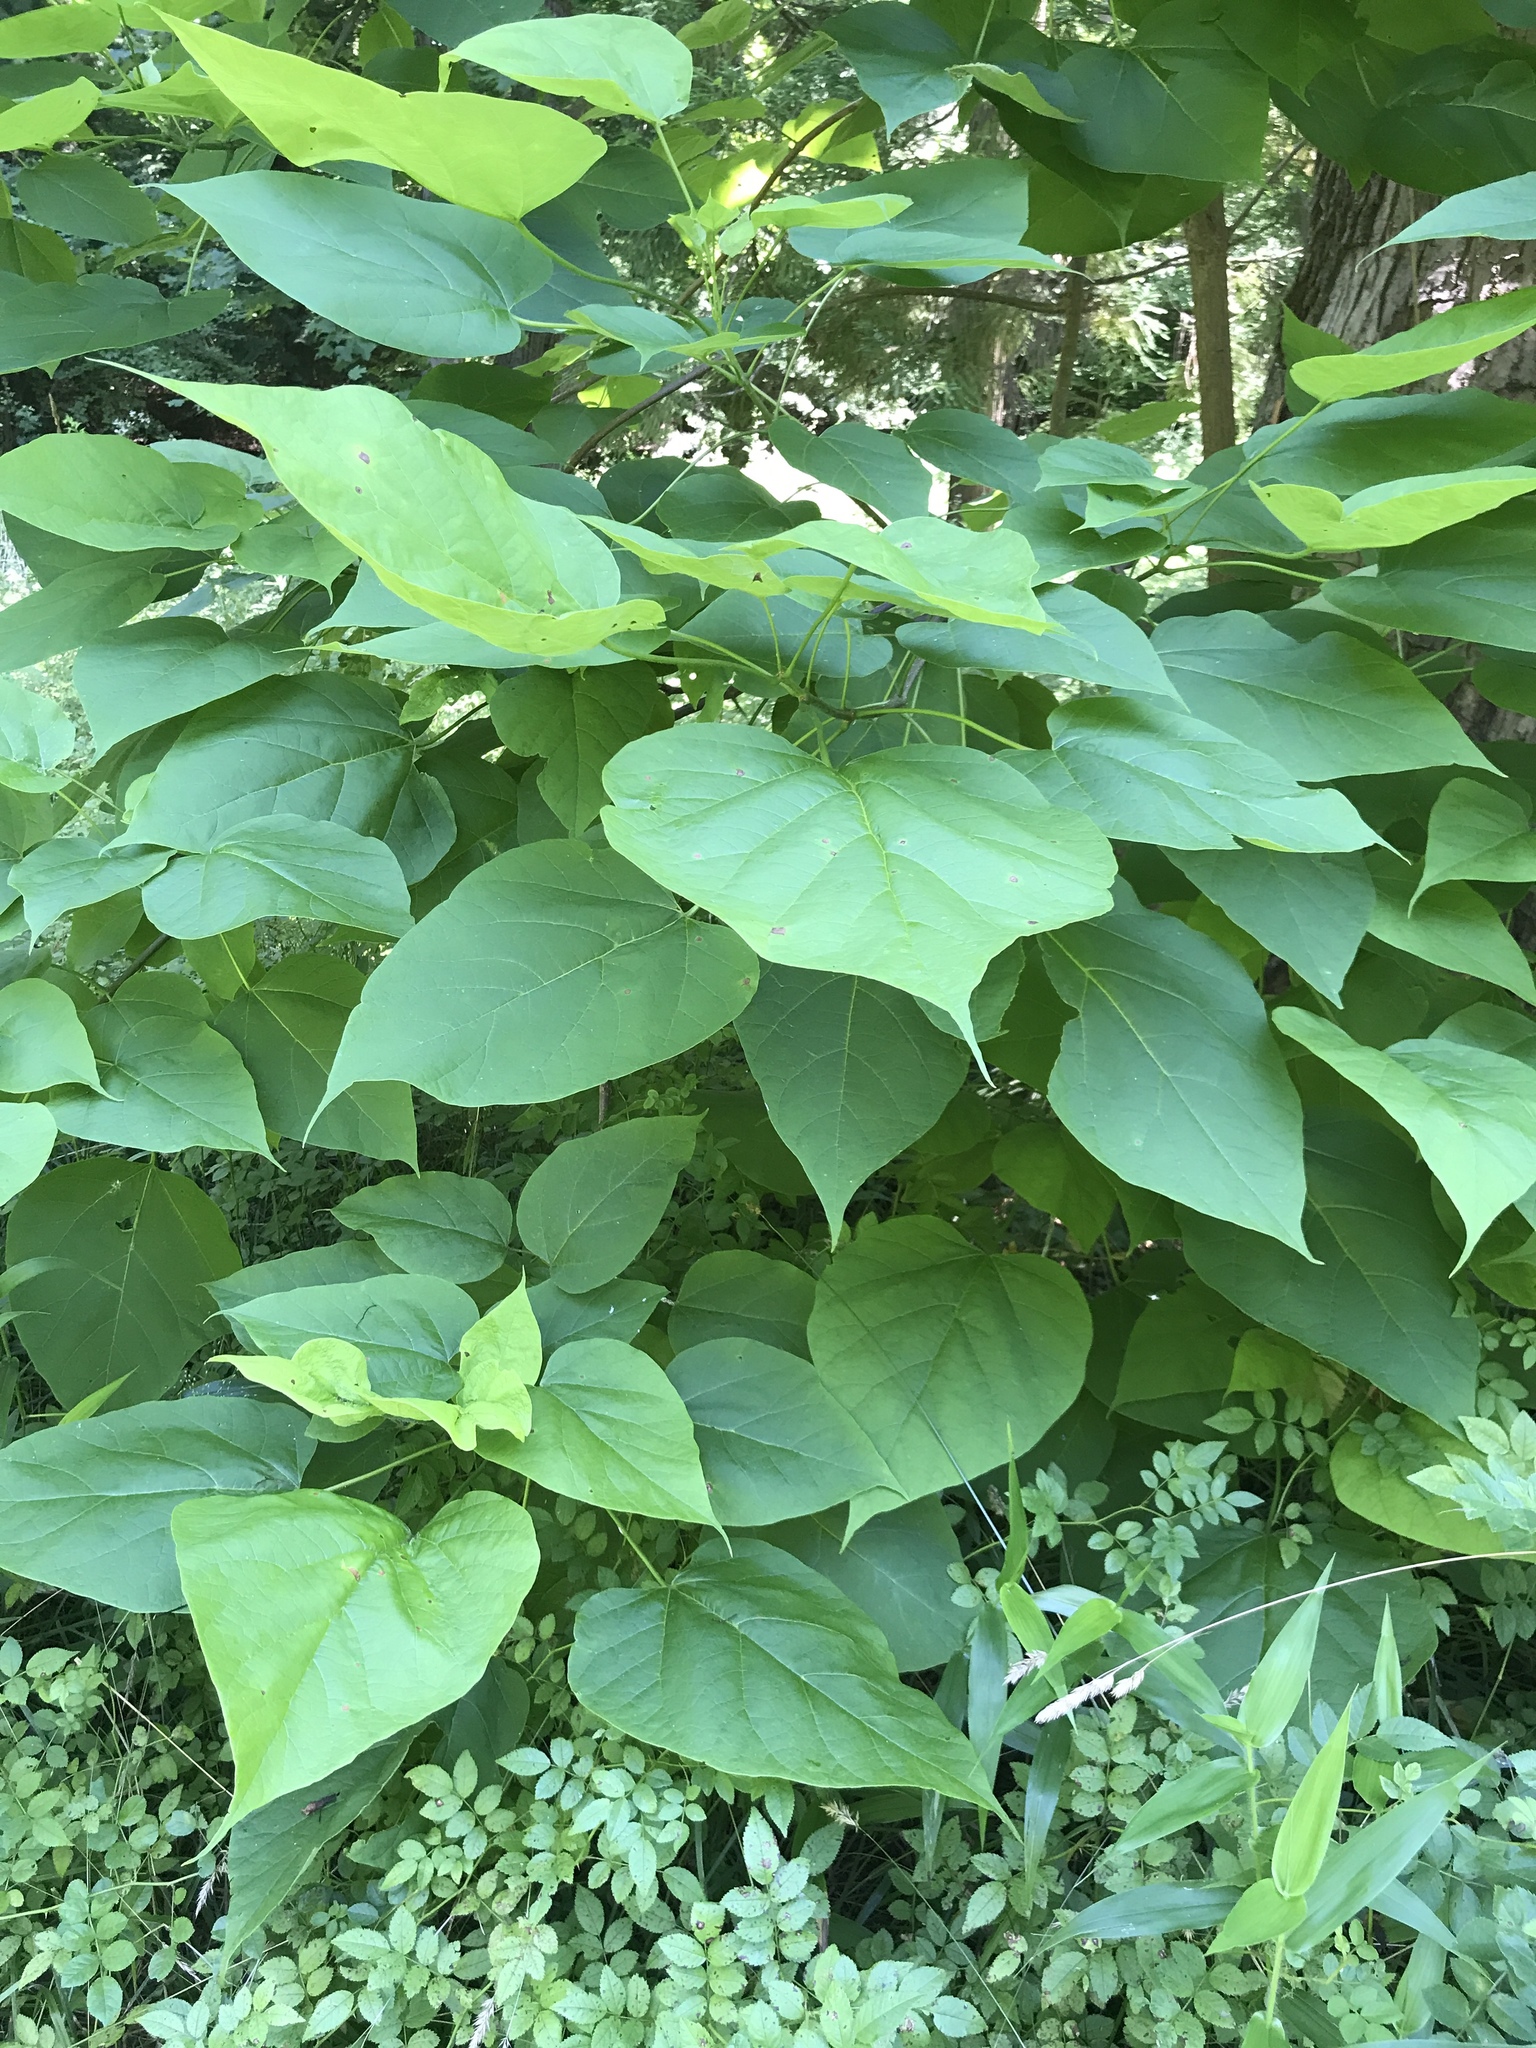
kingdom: Plantae
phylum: Tracheophyta
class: Magnoliopsida
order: Lamiales
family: Bignoniaceae
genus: Catalpa
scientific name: Catalpa speciosa
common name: Northern catalpa
